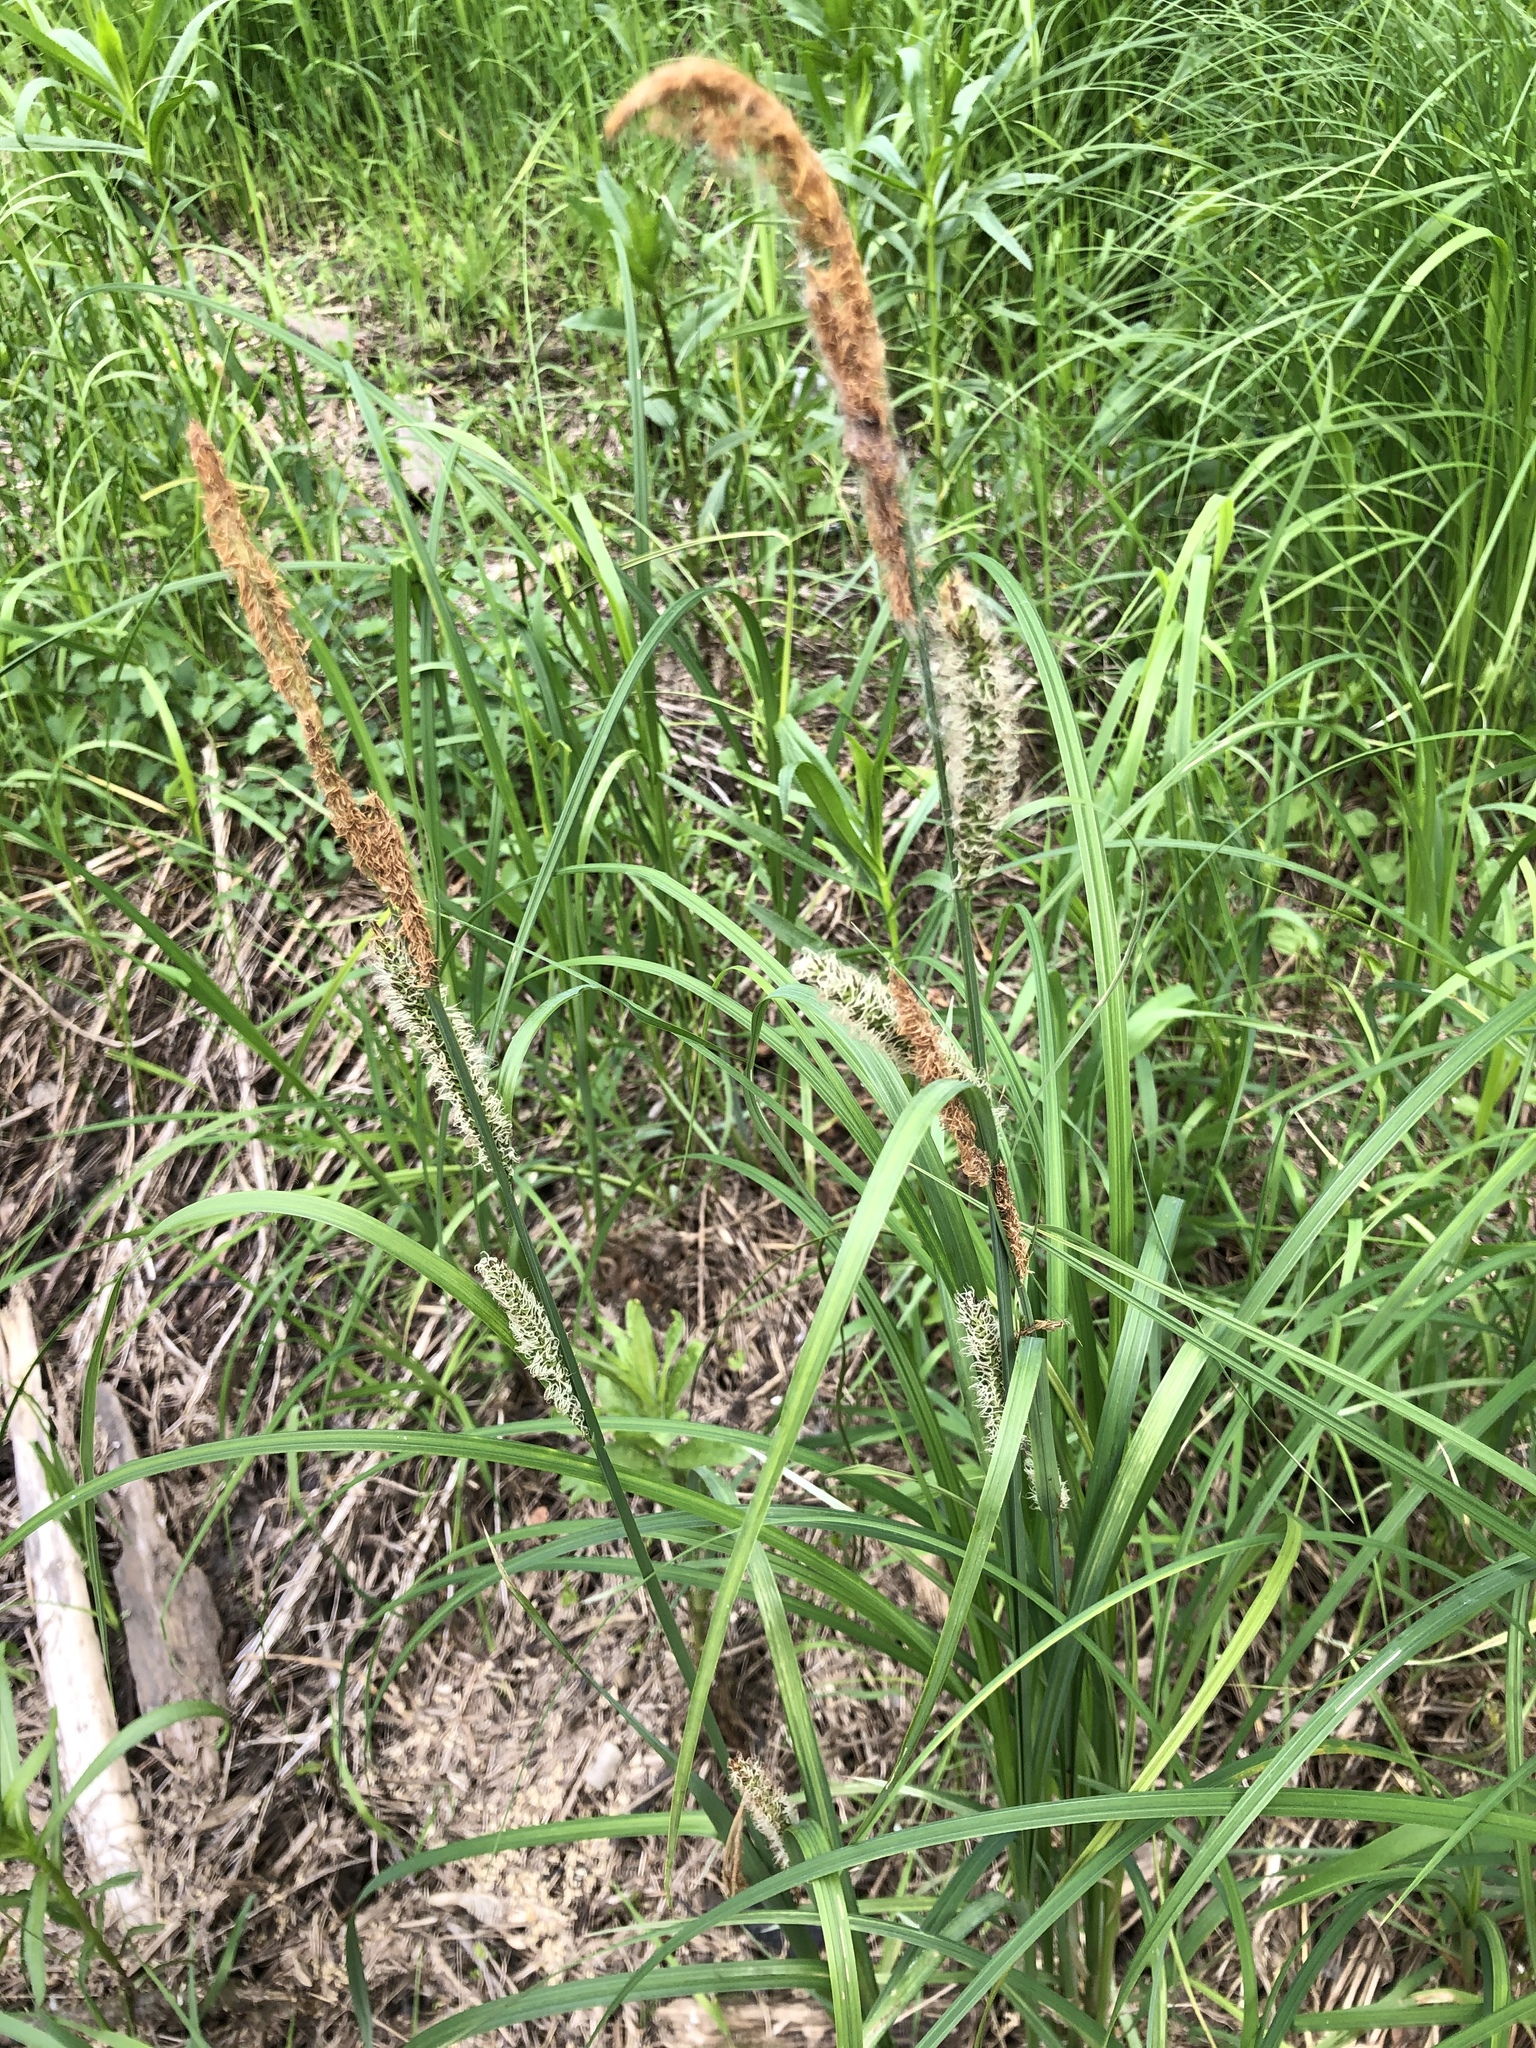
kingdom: Plantae
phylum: Tracheophyta
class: Liliopsida
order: Poales
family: Cyperaceae
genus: Carex
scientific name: Carex acuta
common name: Slender tufted-sedge
